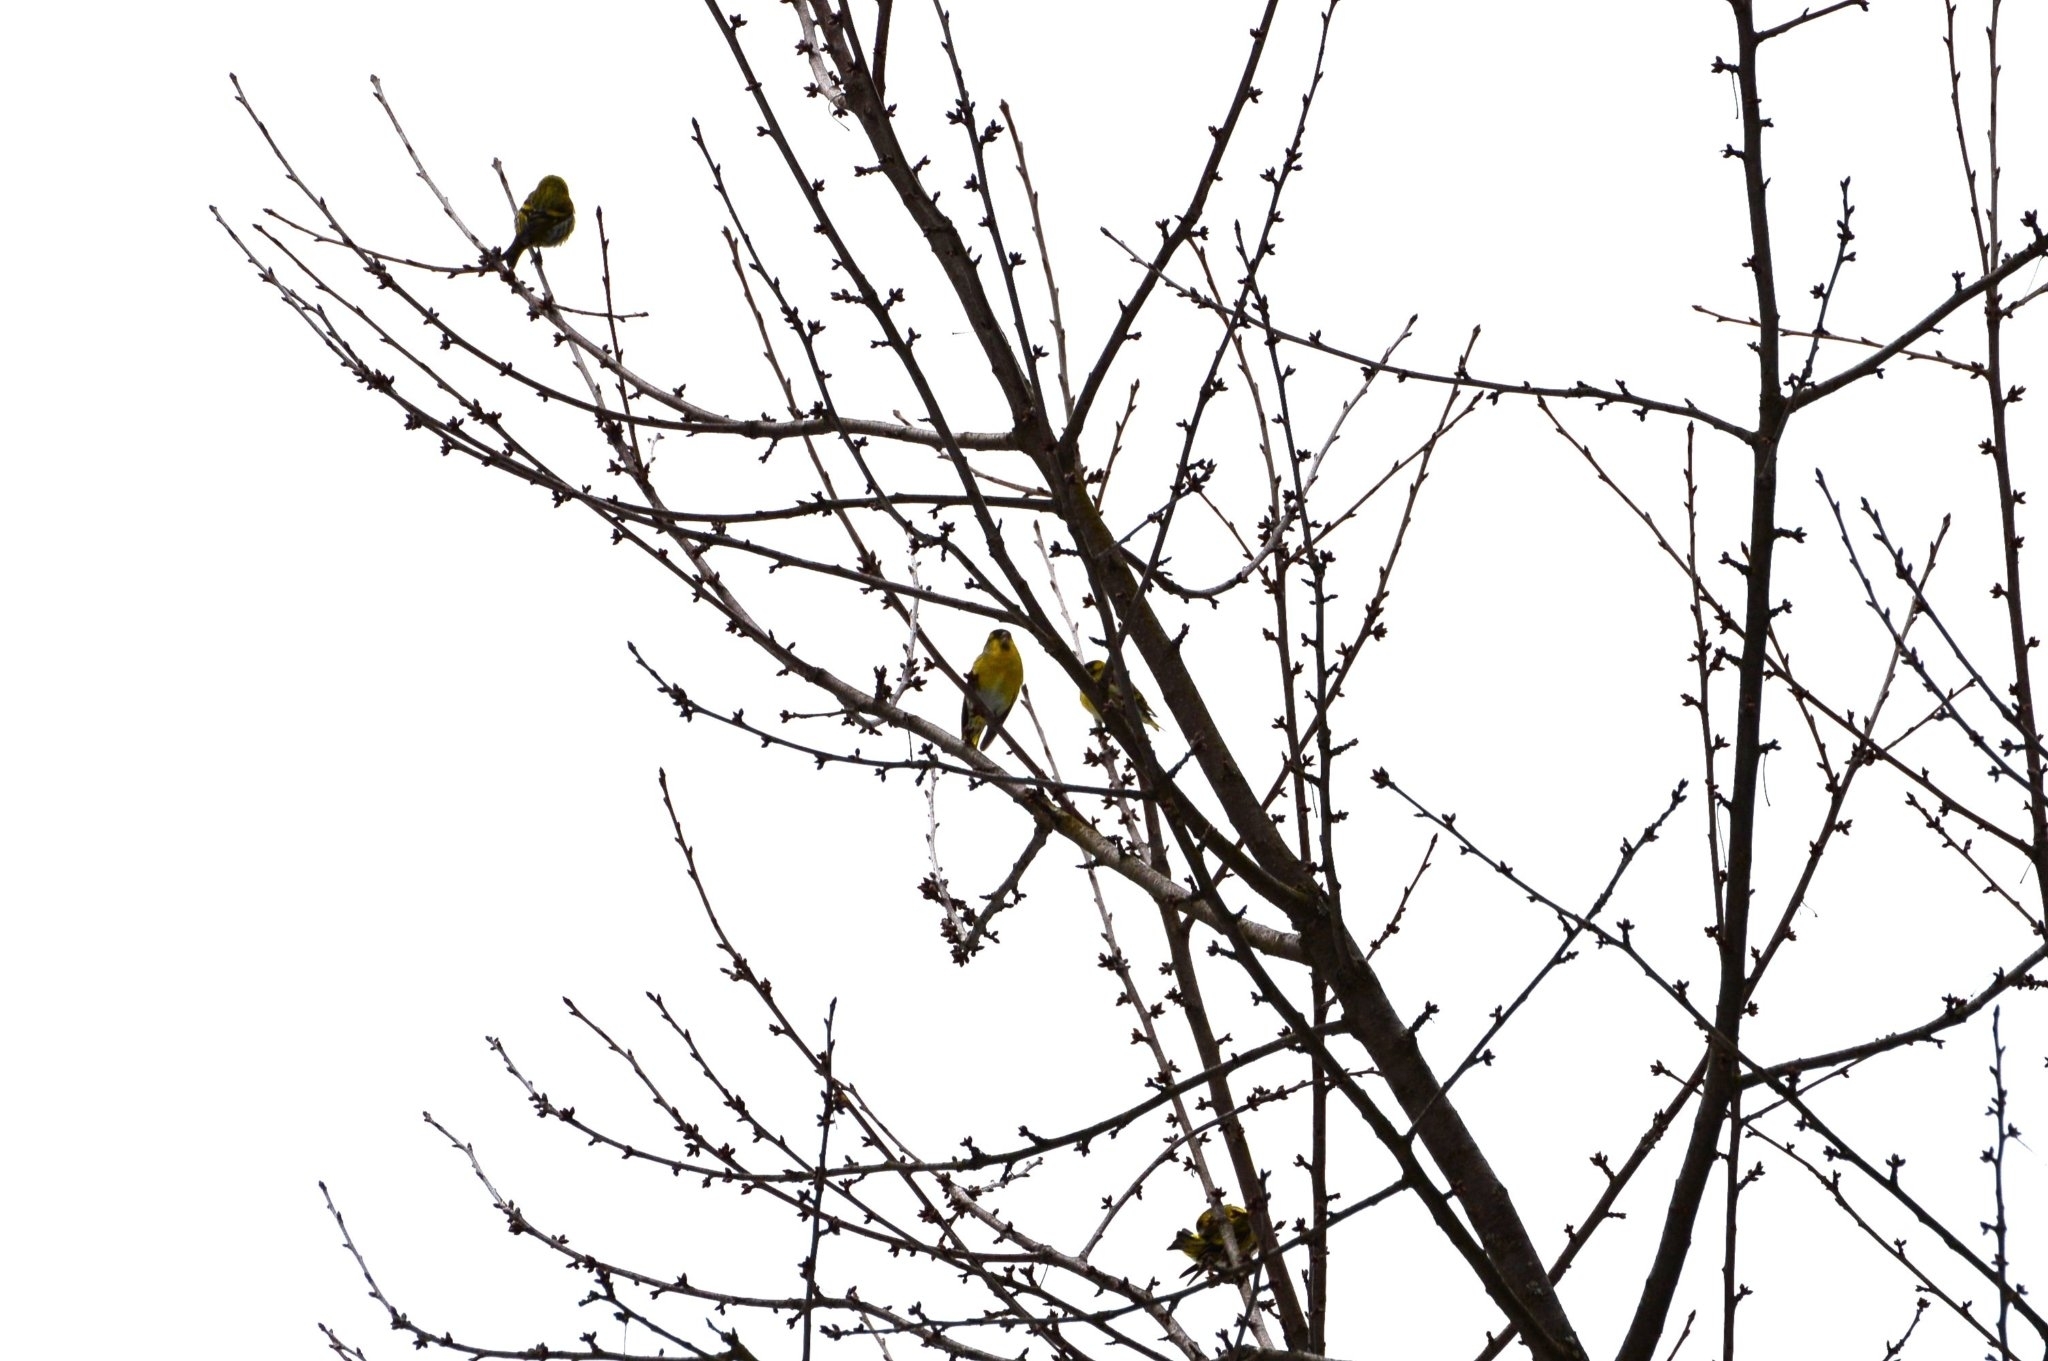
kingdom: Animalia
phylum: Chordata
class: Aves
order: Passeriformes
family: Fringillidae
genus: Spinus
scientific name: Spinus spinus
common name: Eurasian siskin
